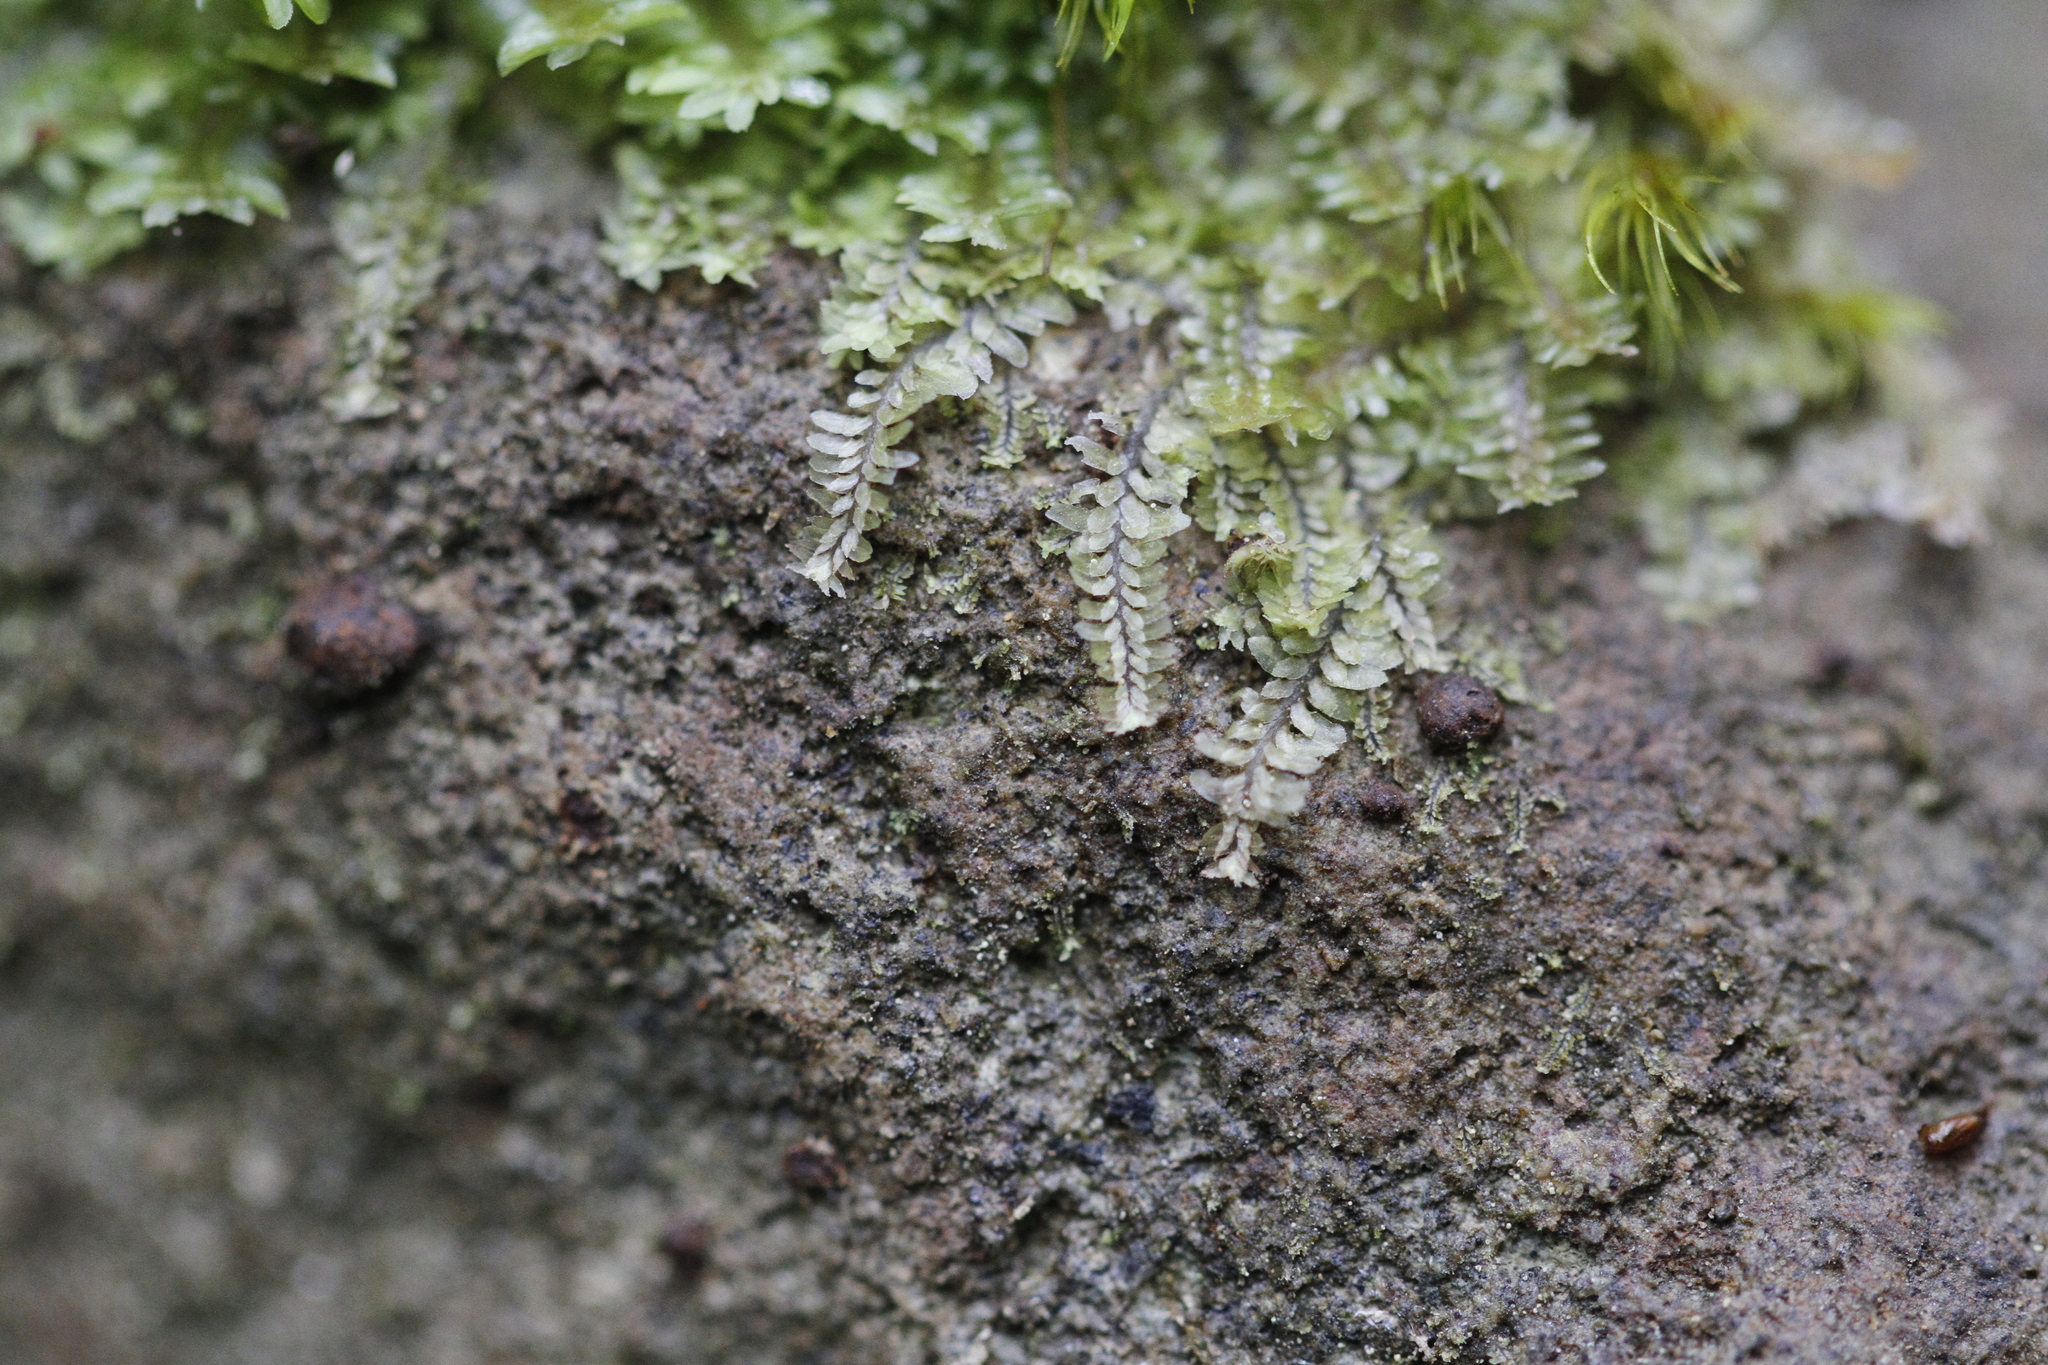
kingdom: Plantae
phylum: Marchantiophyta
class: Jungermanniopsida
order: Jungermanniales
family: Scapaniaceae
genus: Diplophyllum
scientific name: Diplophyllum albicans
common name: White earwort
